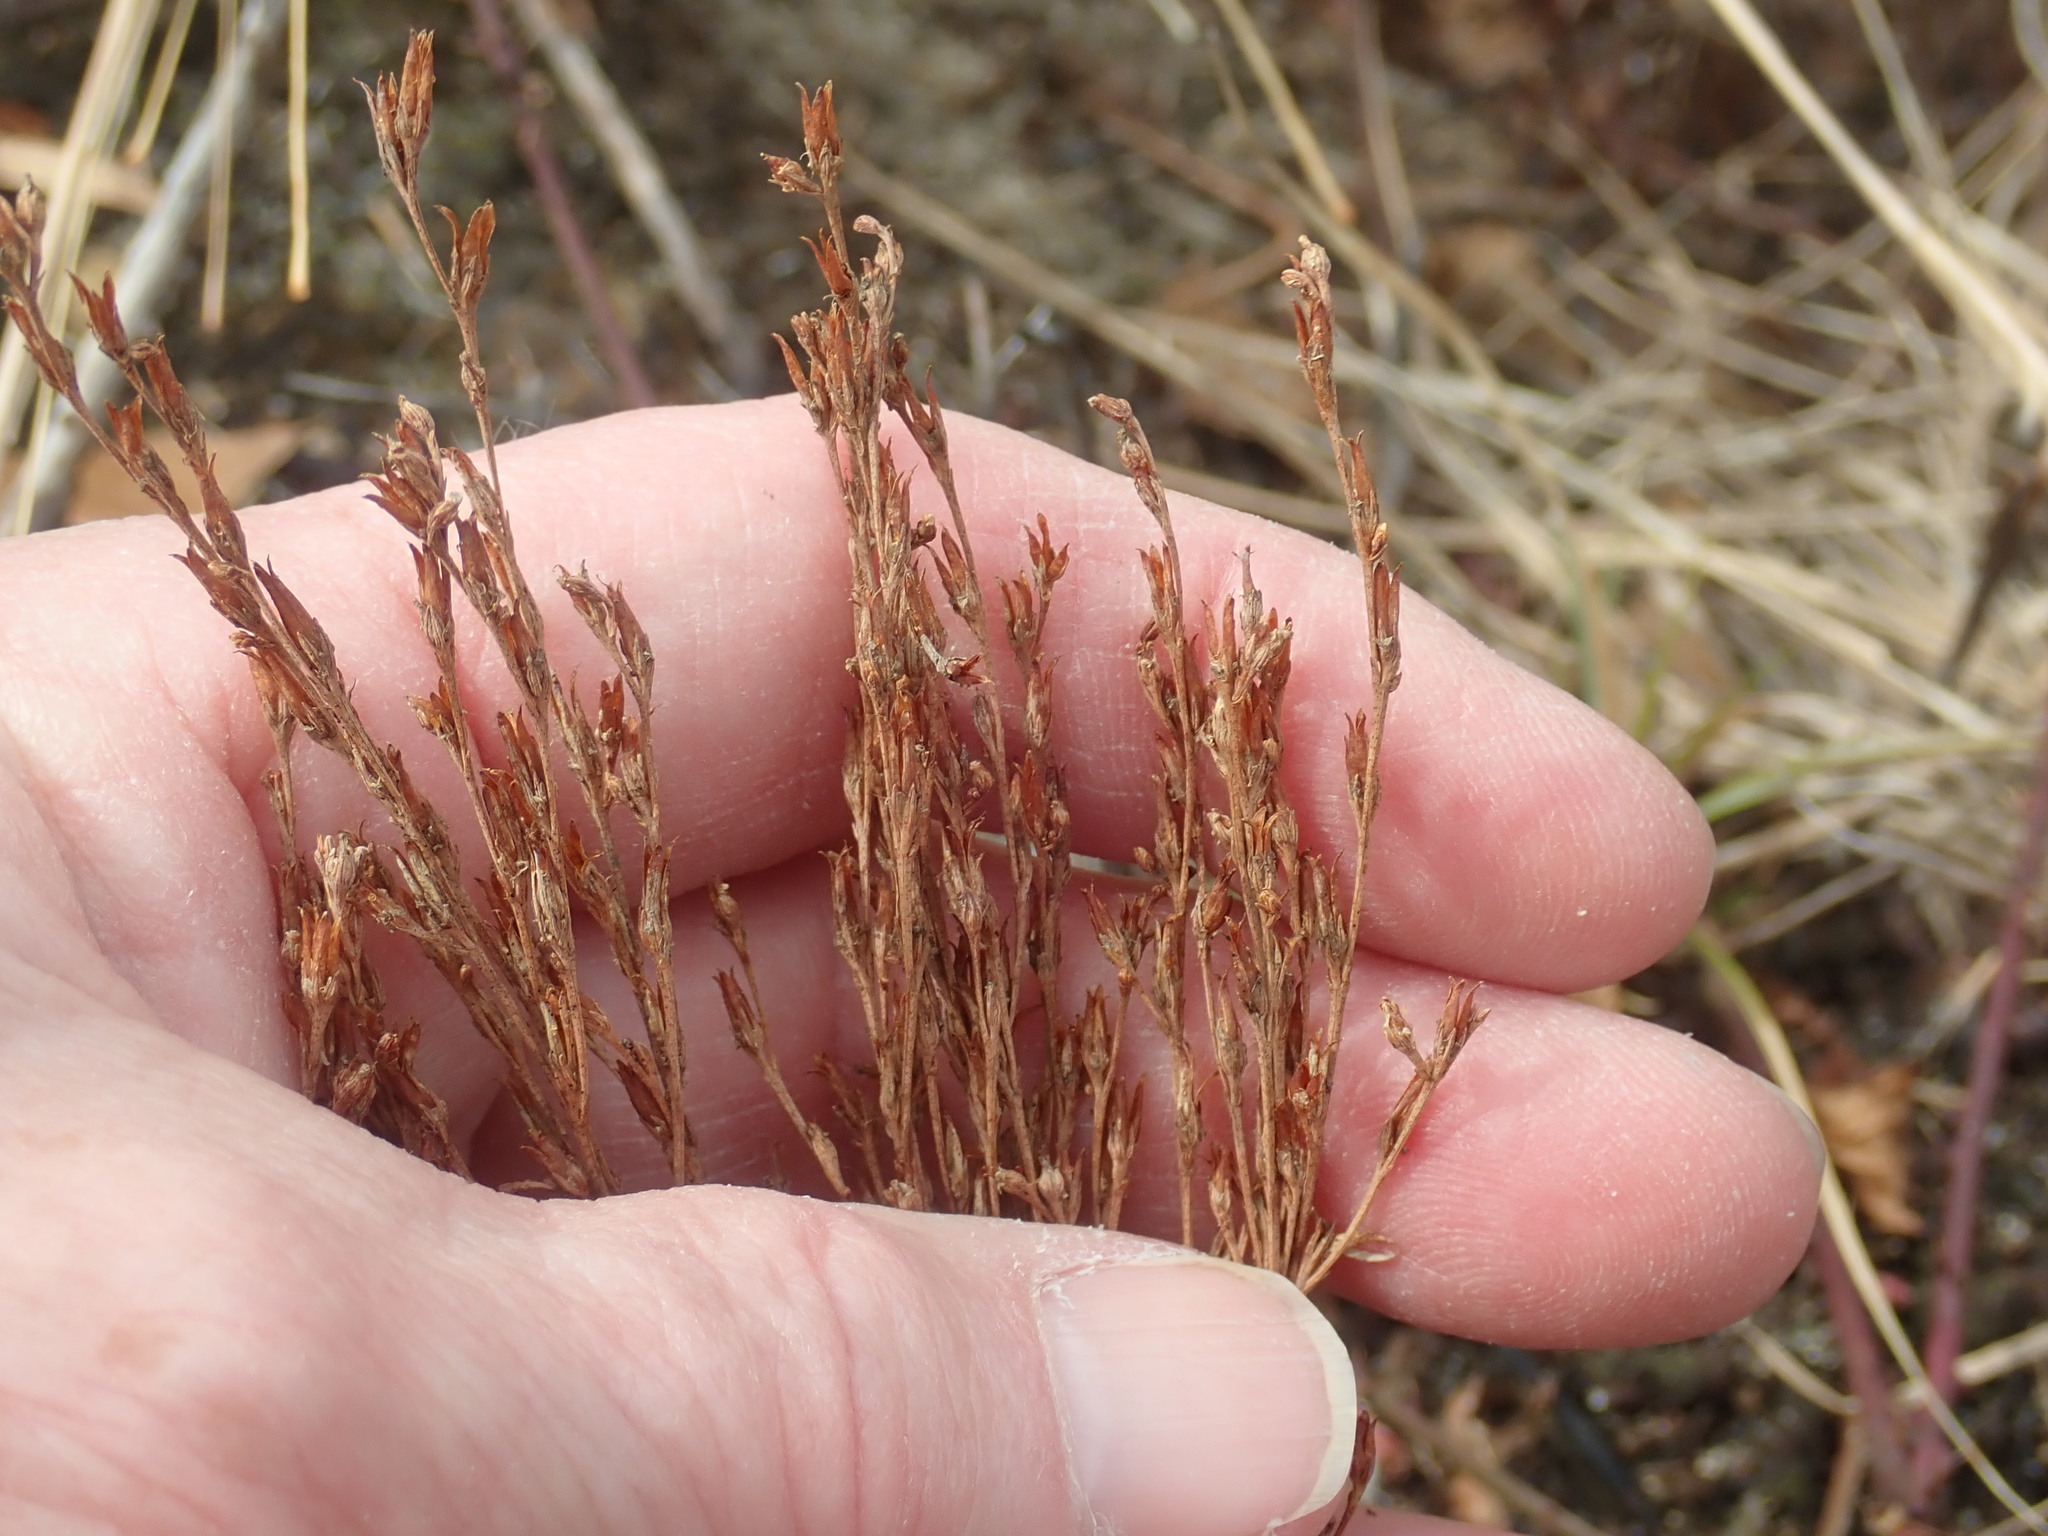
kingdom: Plantae
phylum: Tracheophyta
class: Magnoliopsida
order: Malpighiales
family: Hypericaceae
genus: Hypericum
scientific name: Hypericum gentianoides
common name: Gentian-leaved st. john's-wort
